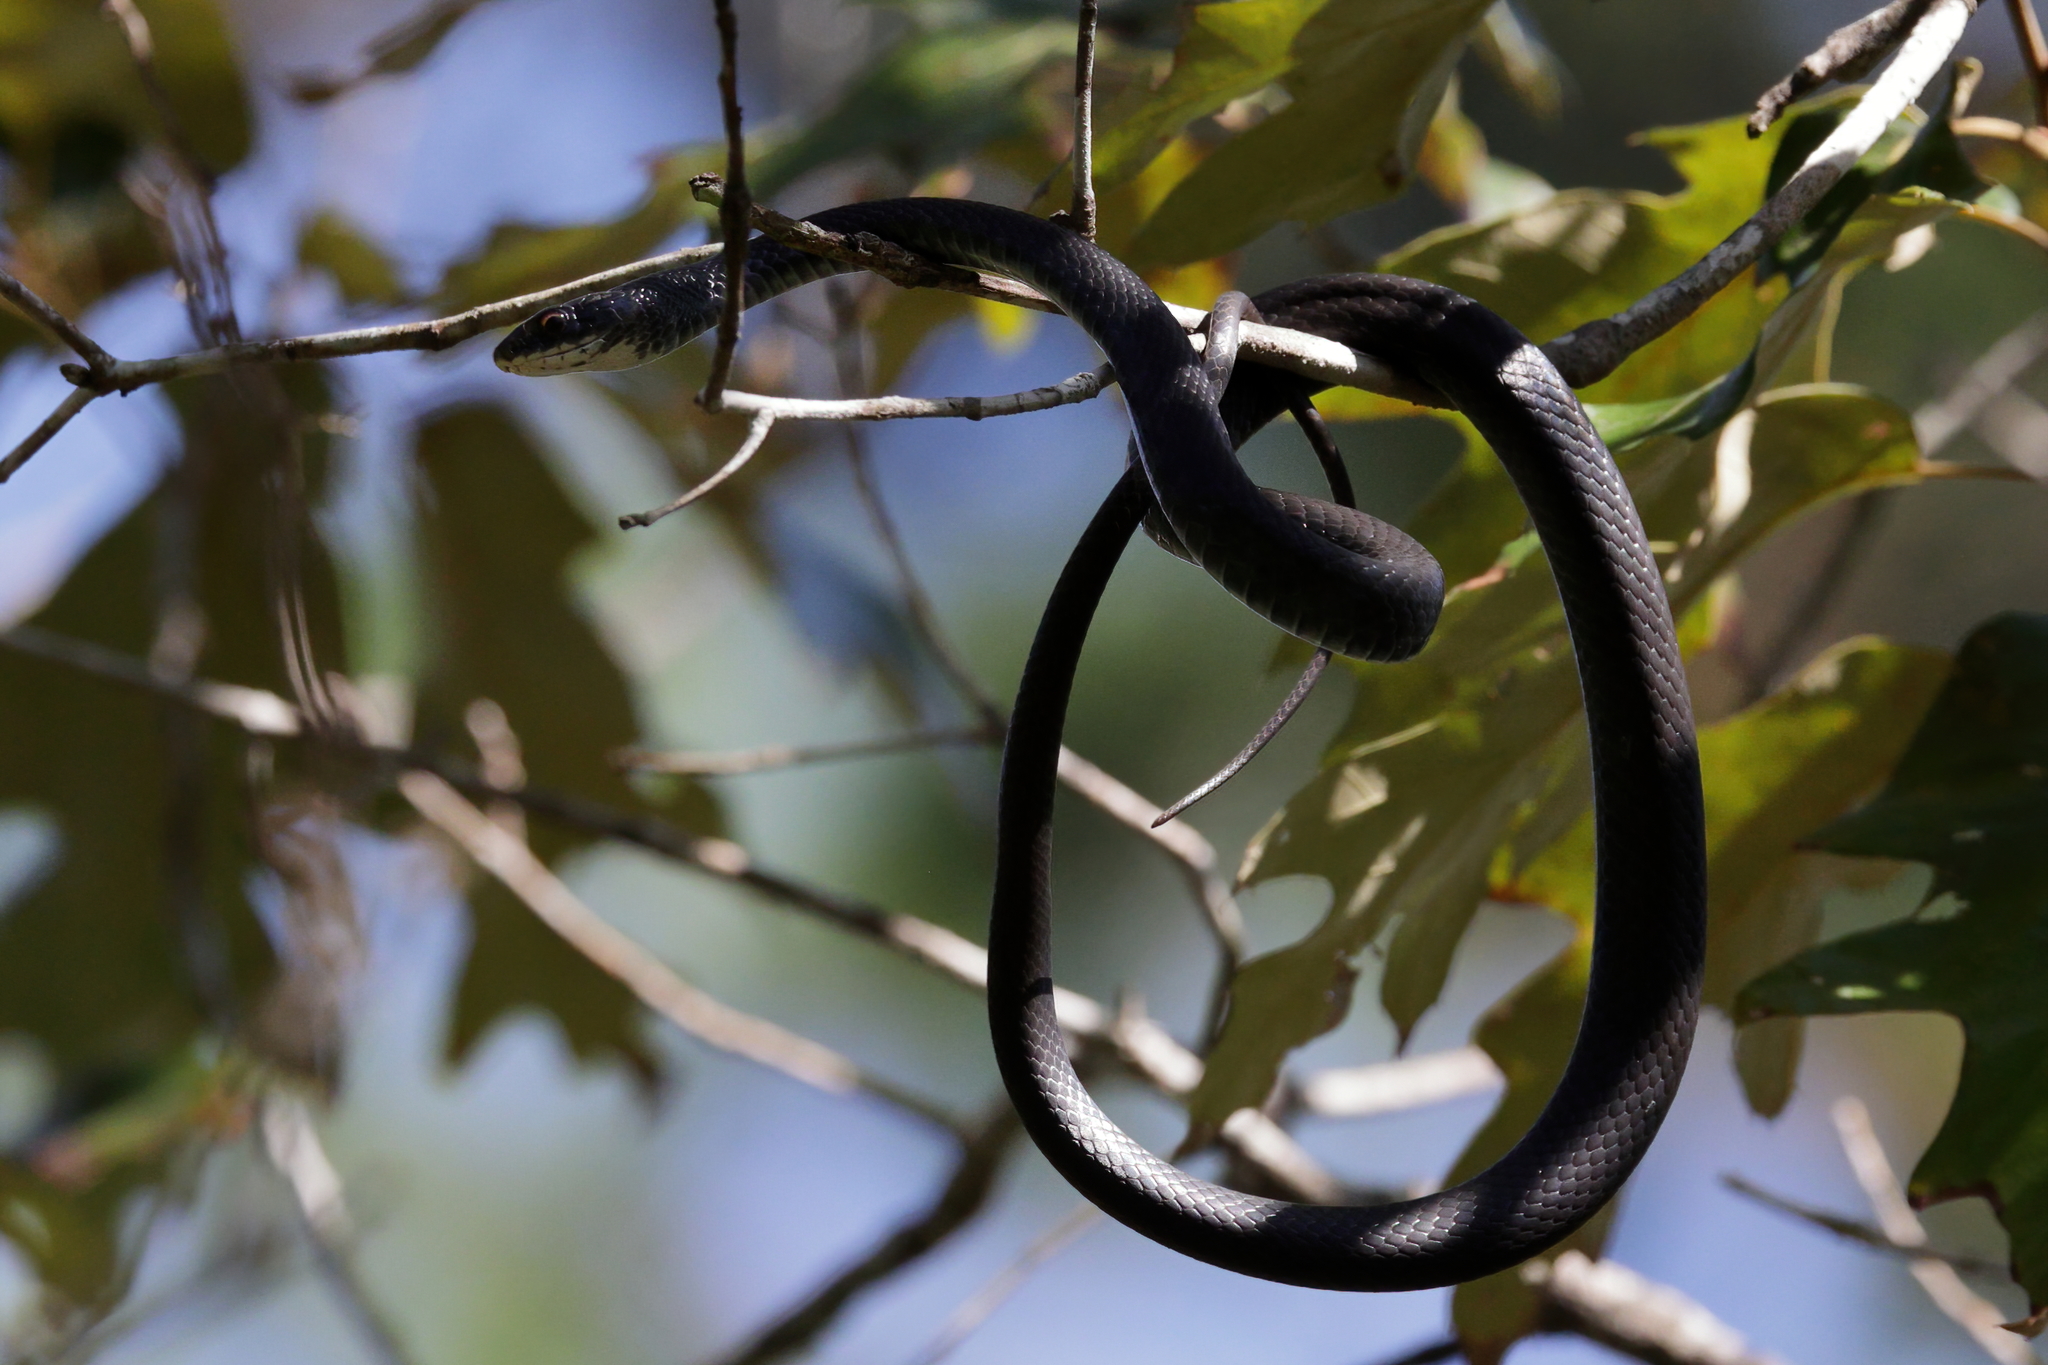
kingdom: Animalia
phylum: Chordata
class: Squamata
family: Colubridae
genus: Coluber
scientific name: Coluber constrictor
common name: Eastern racer
